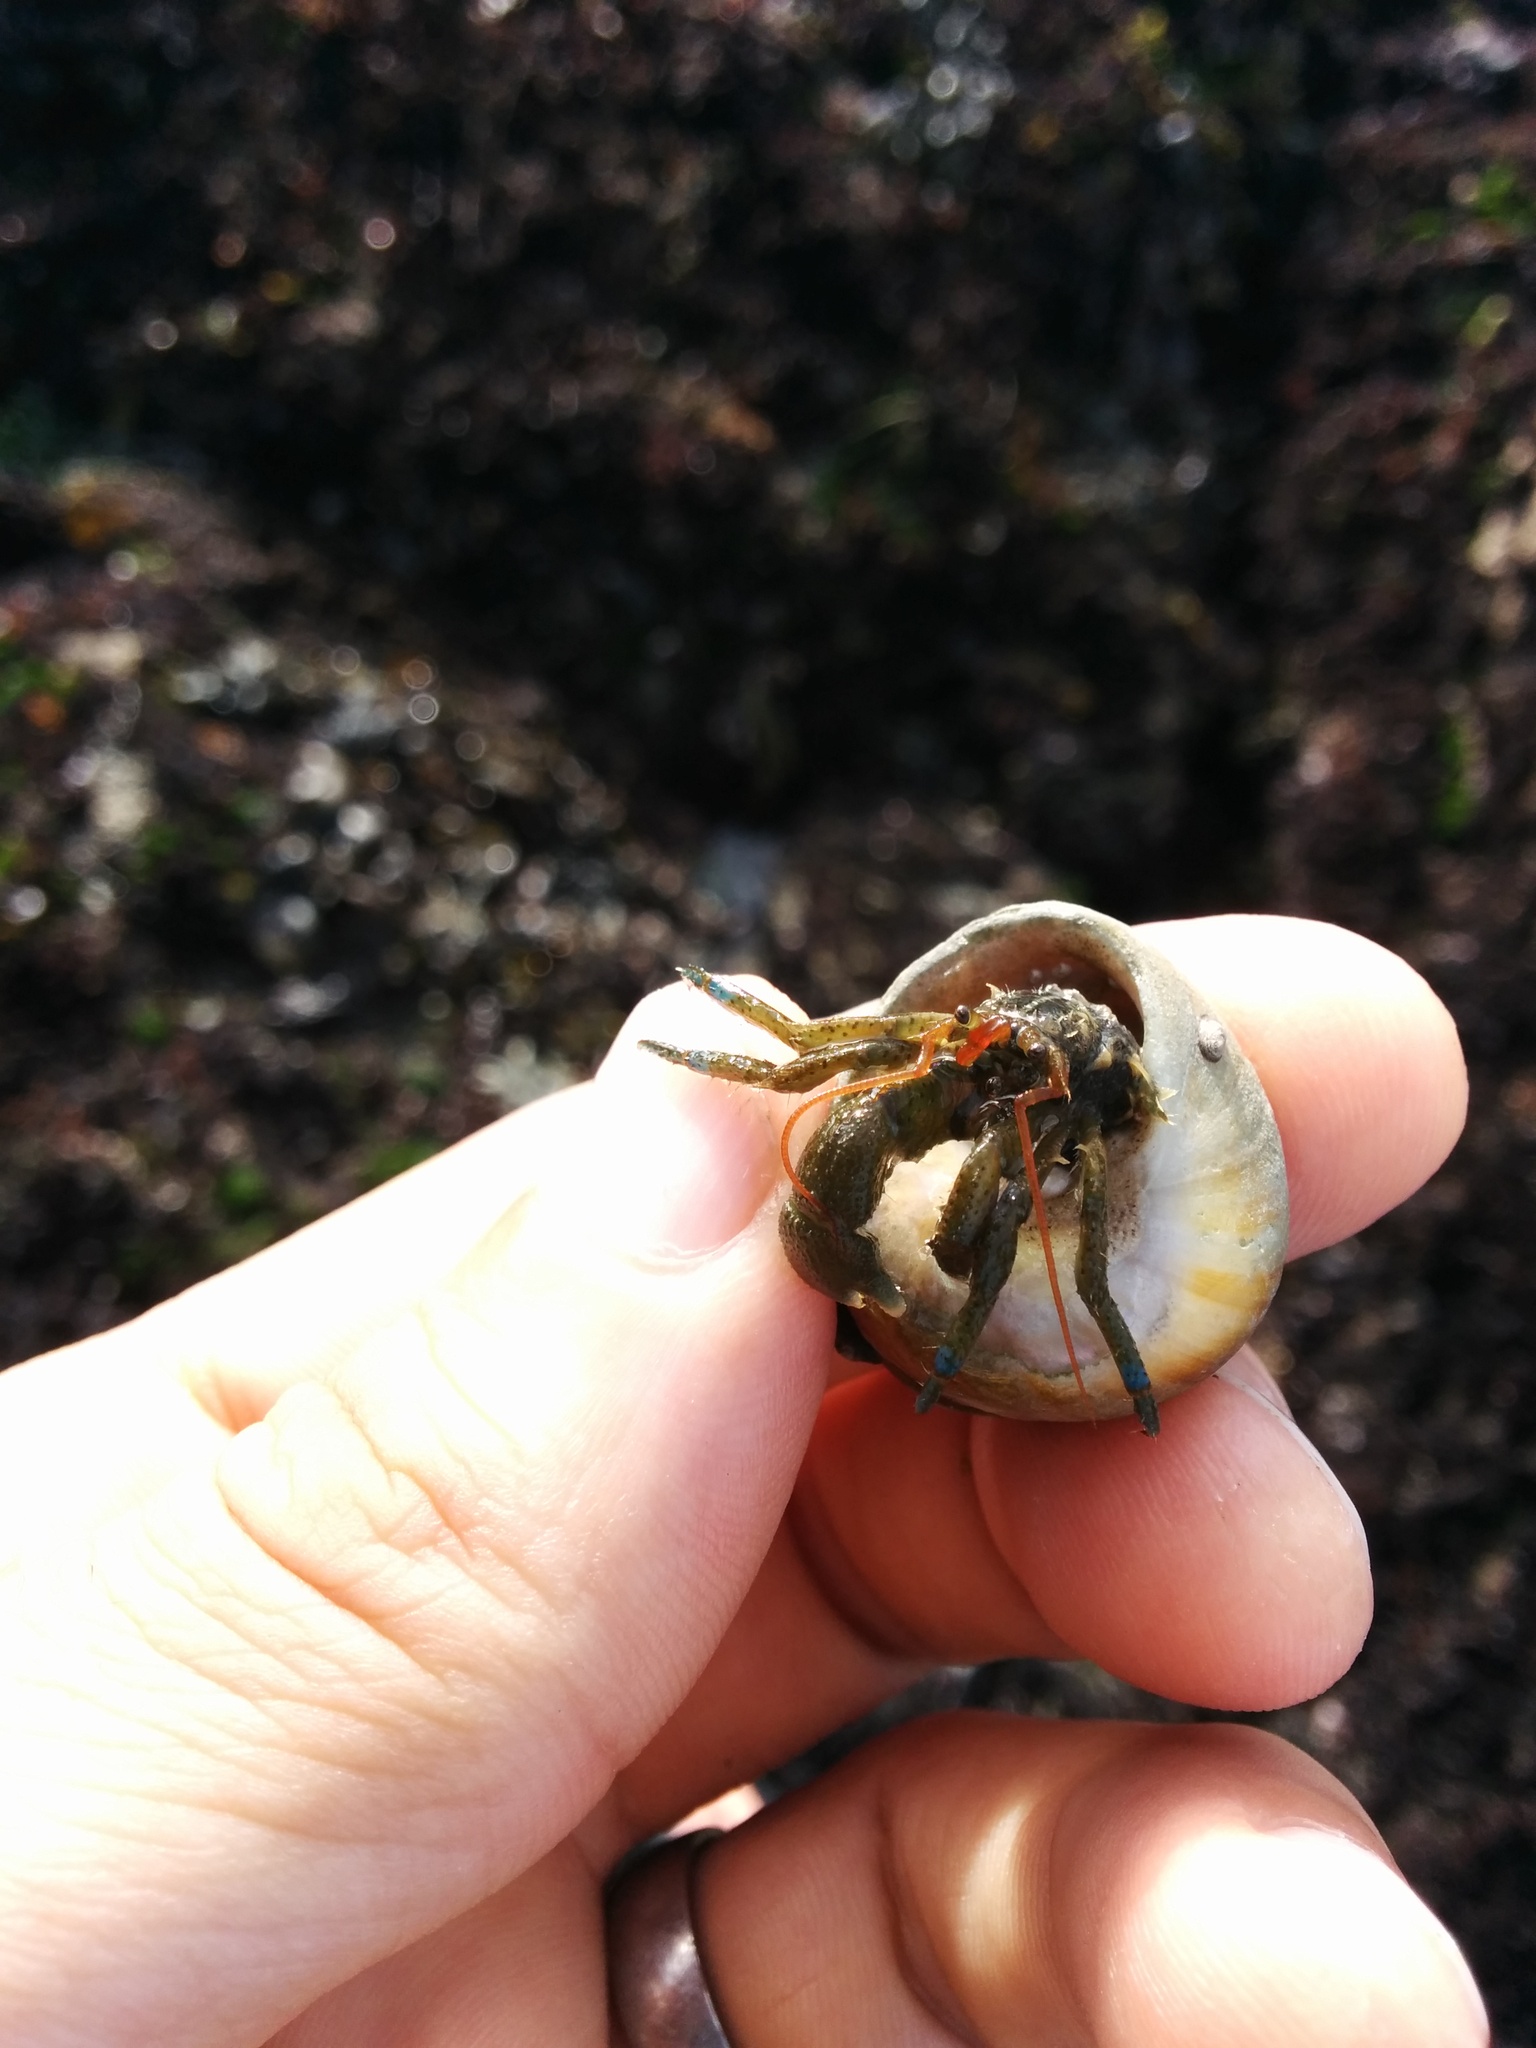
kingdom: Animalia
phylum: Arthropoda
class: Malacostraca
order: Decapoda
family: Paguridae
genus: Pagurus
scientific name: Pagurus samuelis
